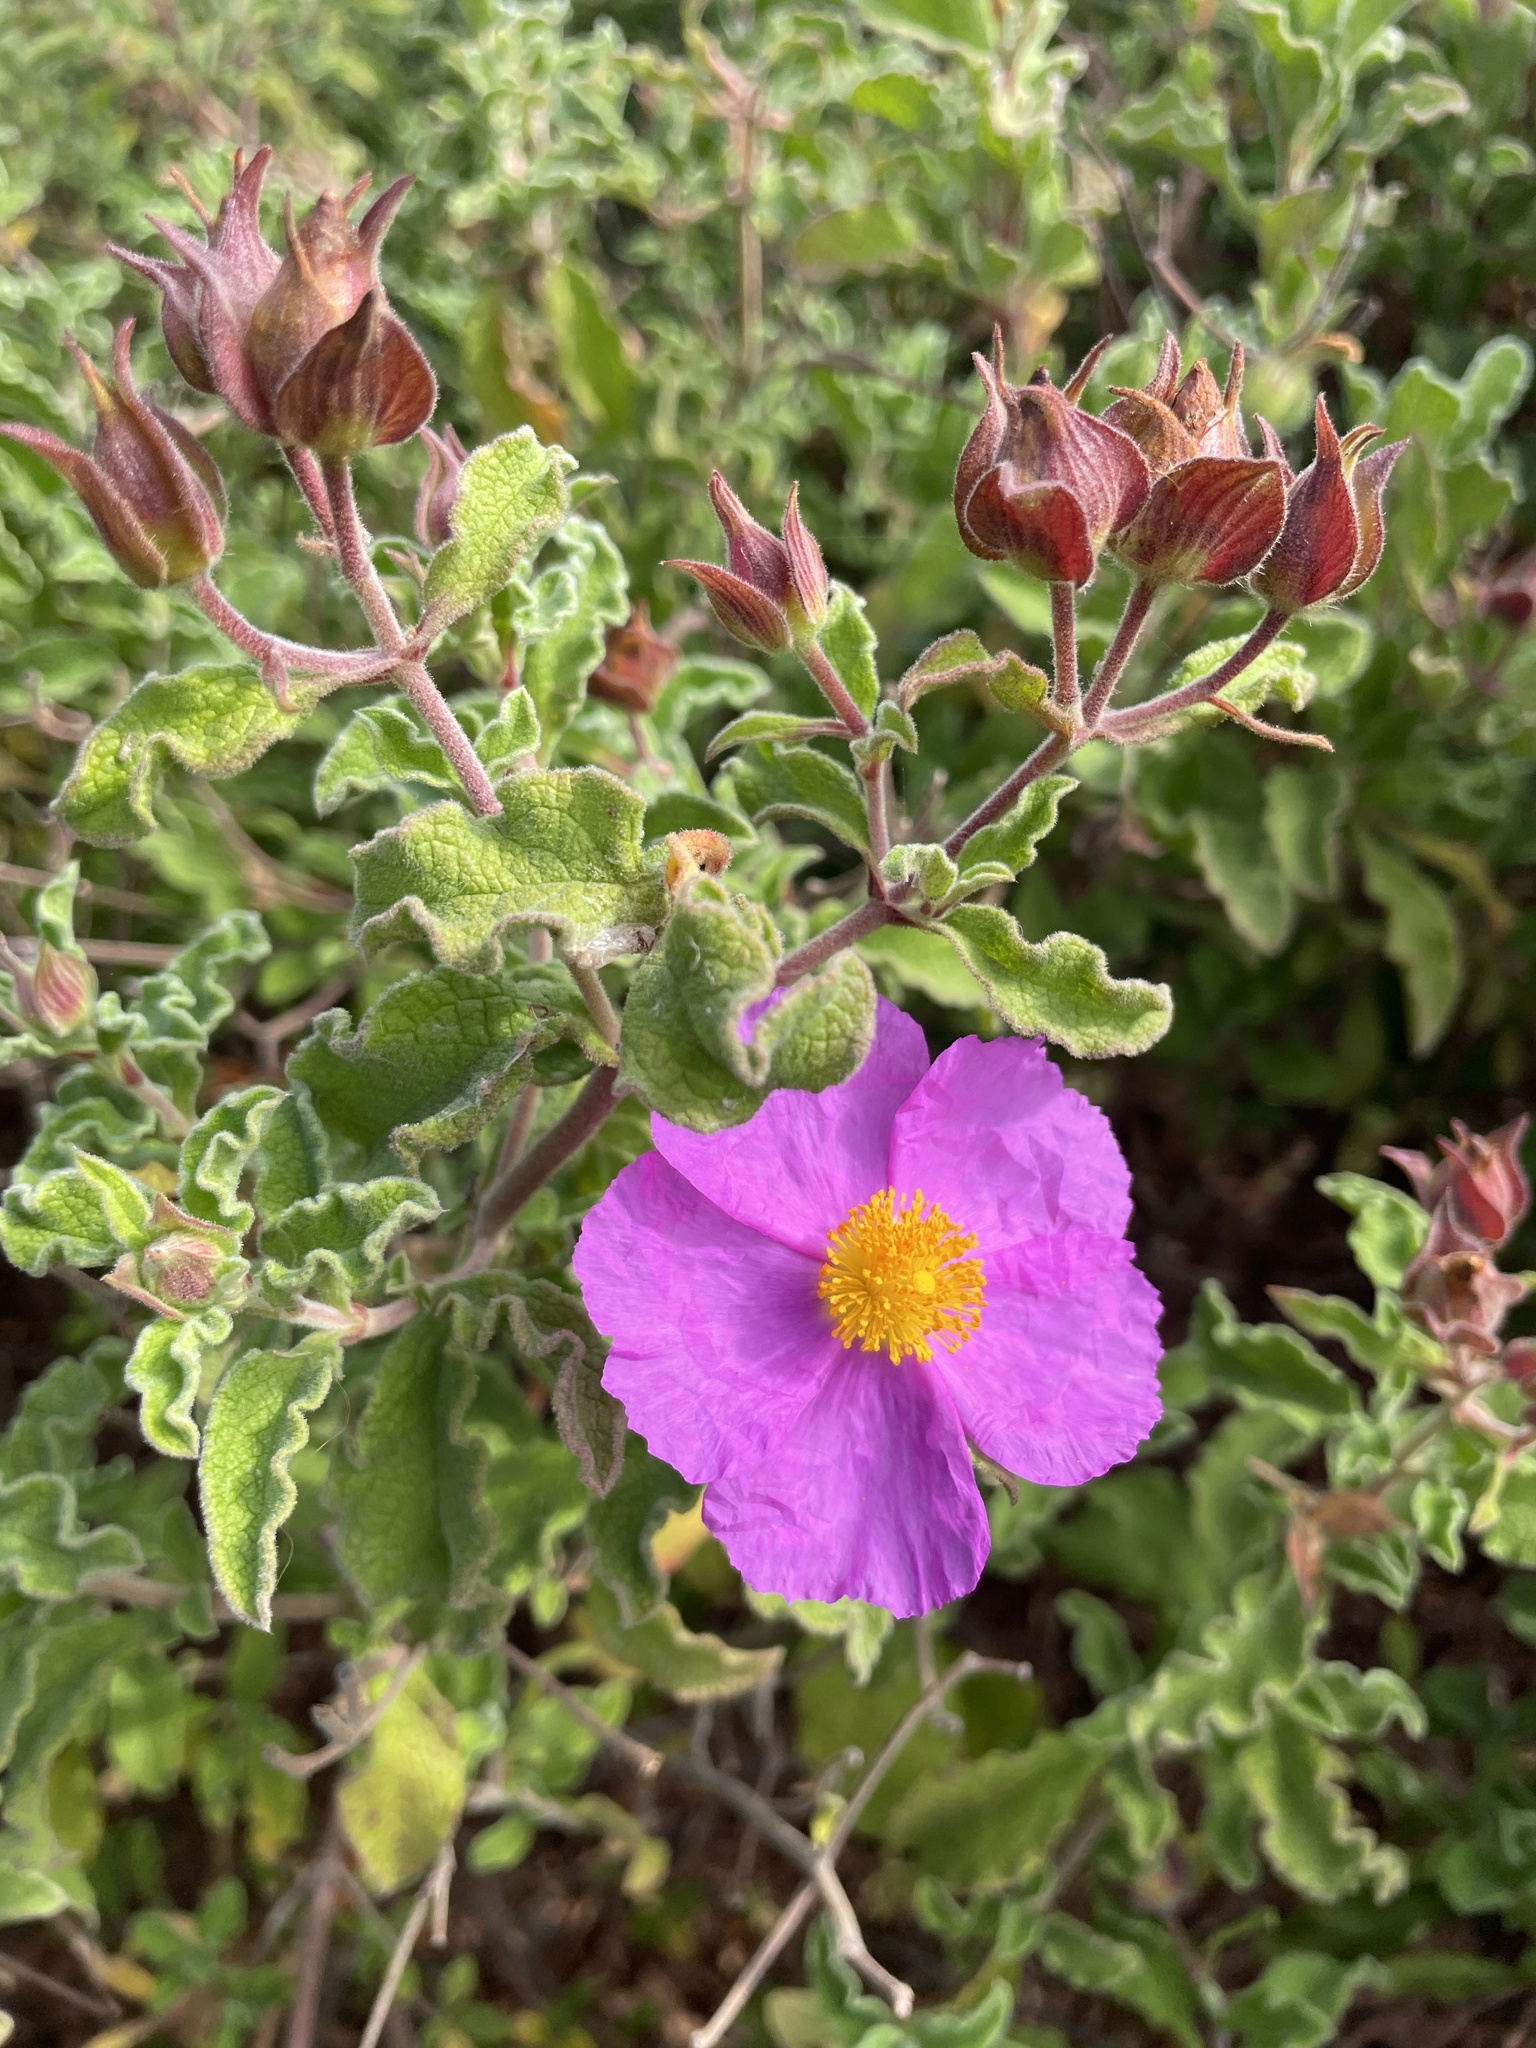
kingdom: Plantae
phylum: Tracheophyta
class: Magnoliopsida
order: Malvales
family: Cistaceae
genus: Cistus
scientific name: Cistus creticus
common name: Cretan rockrose
